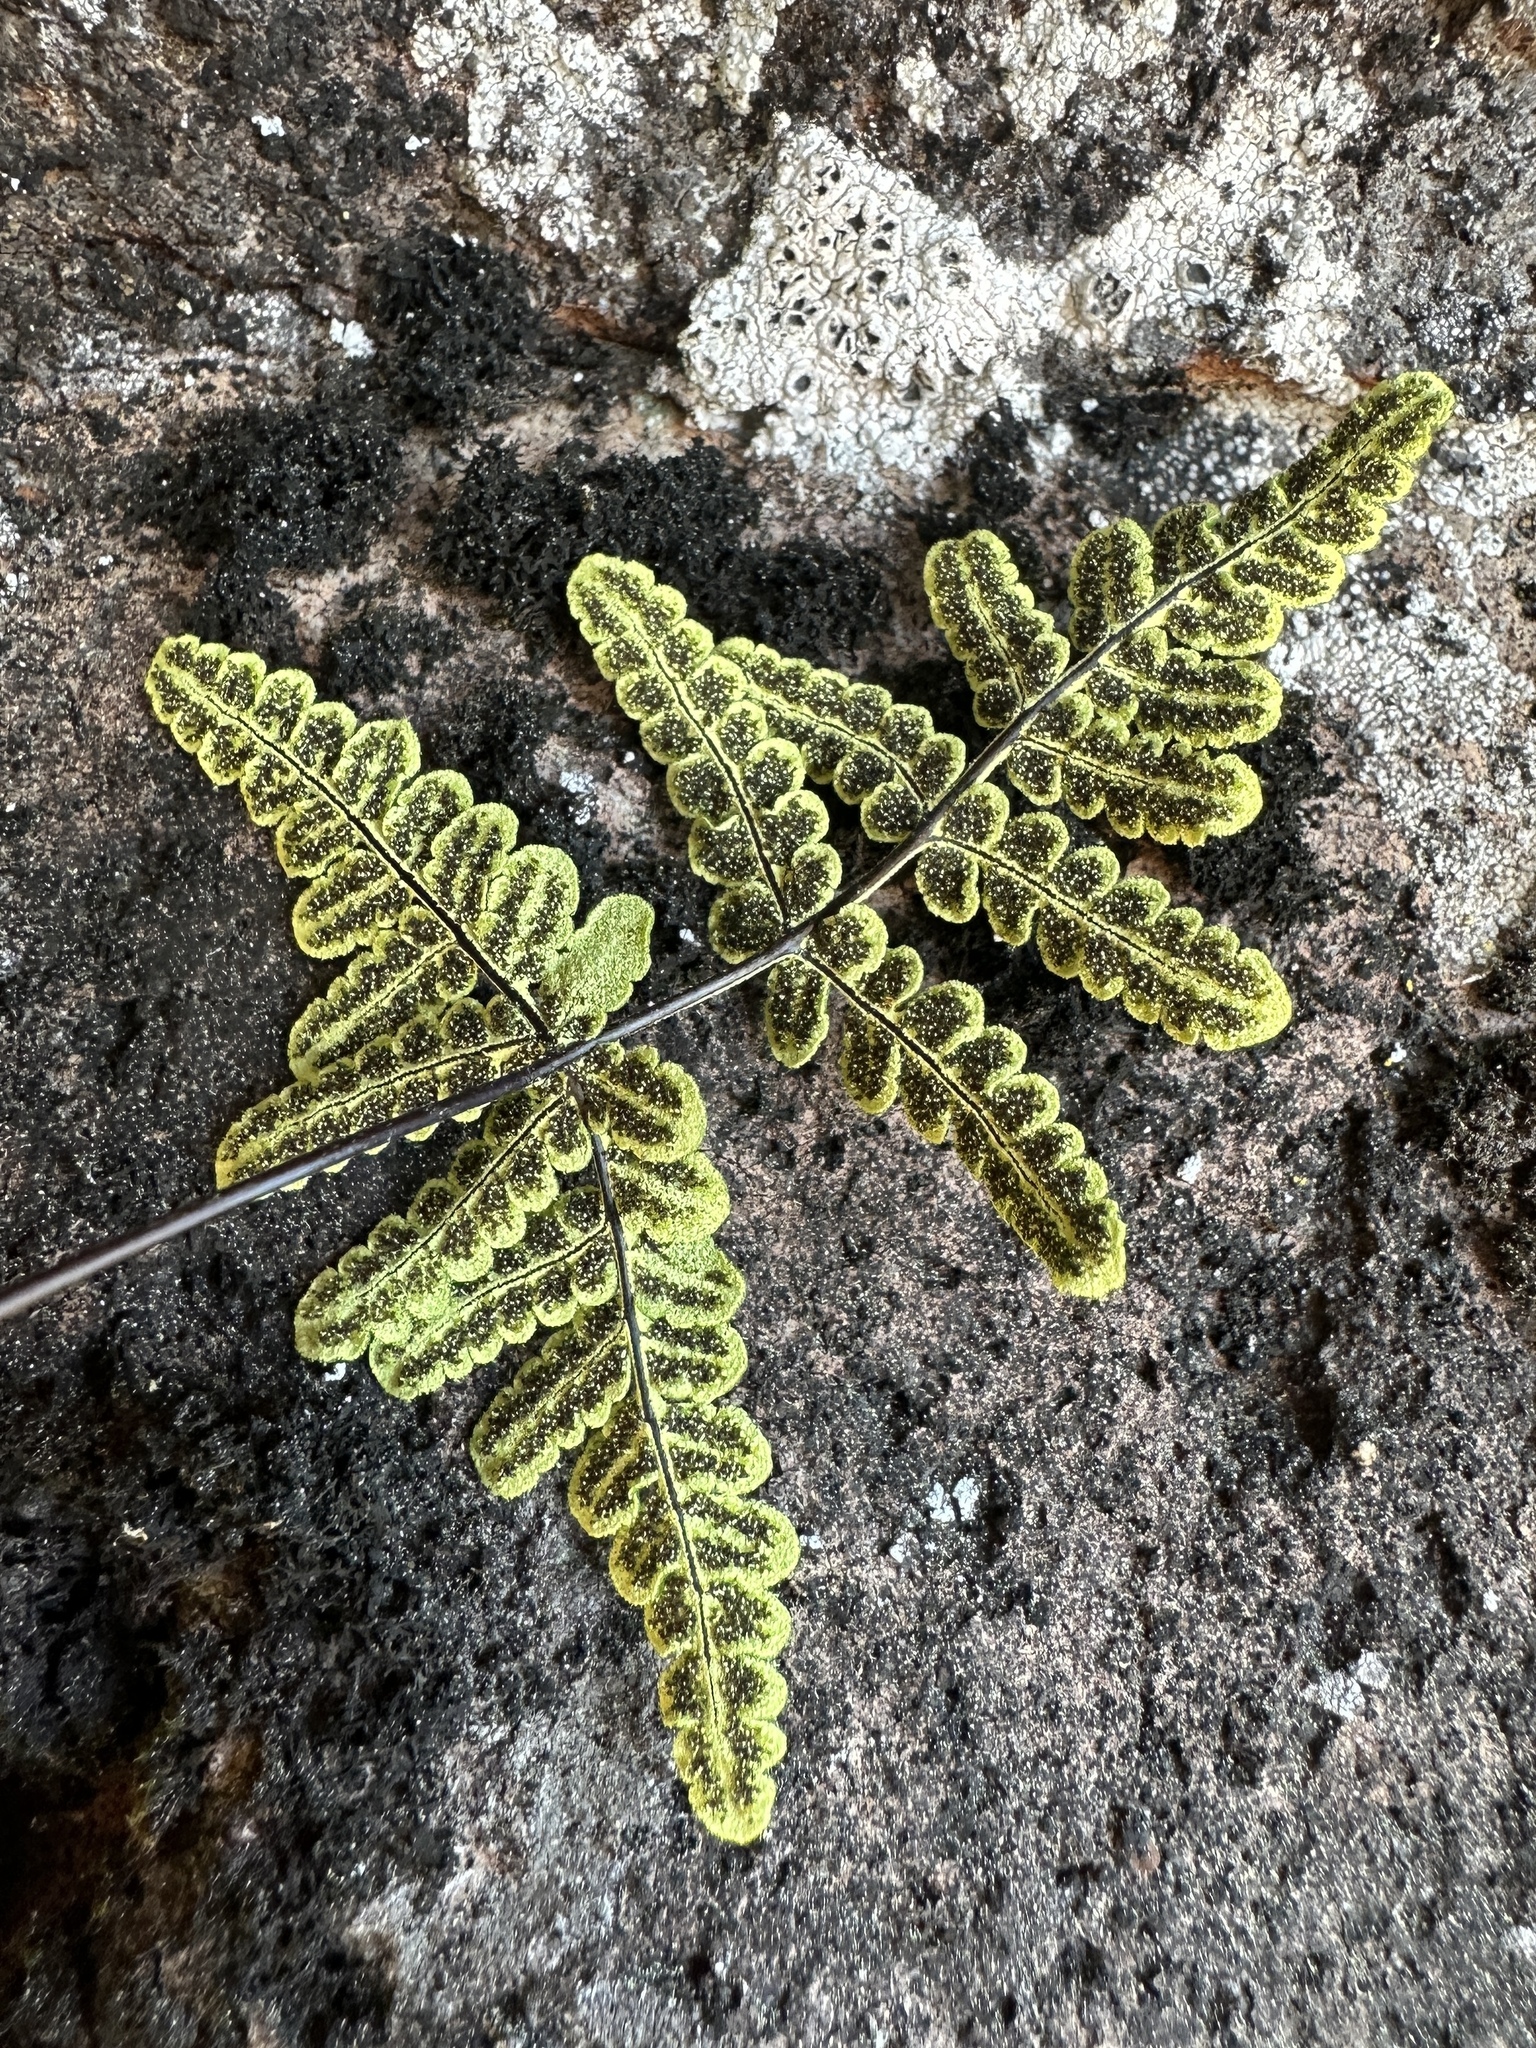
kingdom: Plantae
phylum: Tracheophyta
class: Polypodiopsida
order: Polypodiales
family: Pteridaceae
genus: Pentagramma
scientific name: Pentagramma triangularis
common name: Gold fern
